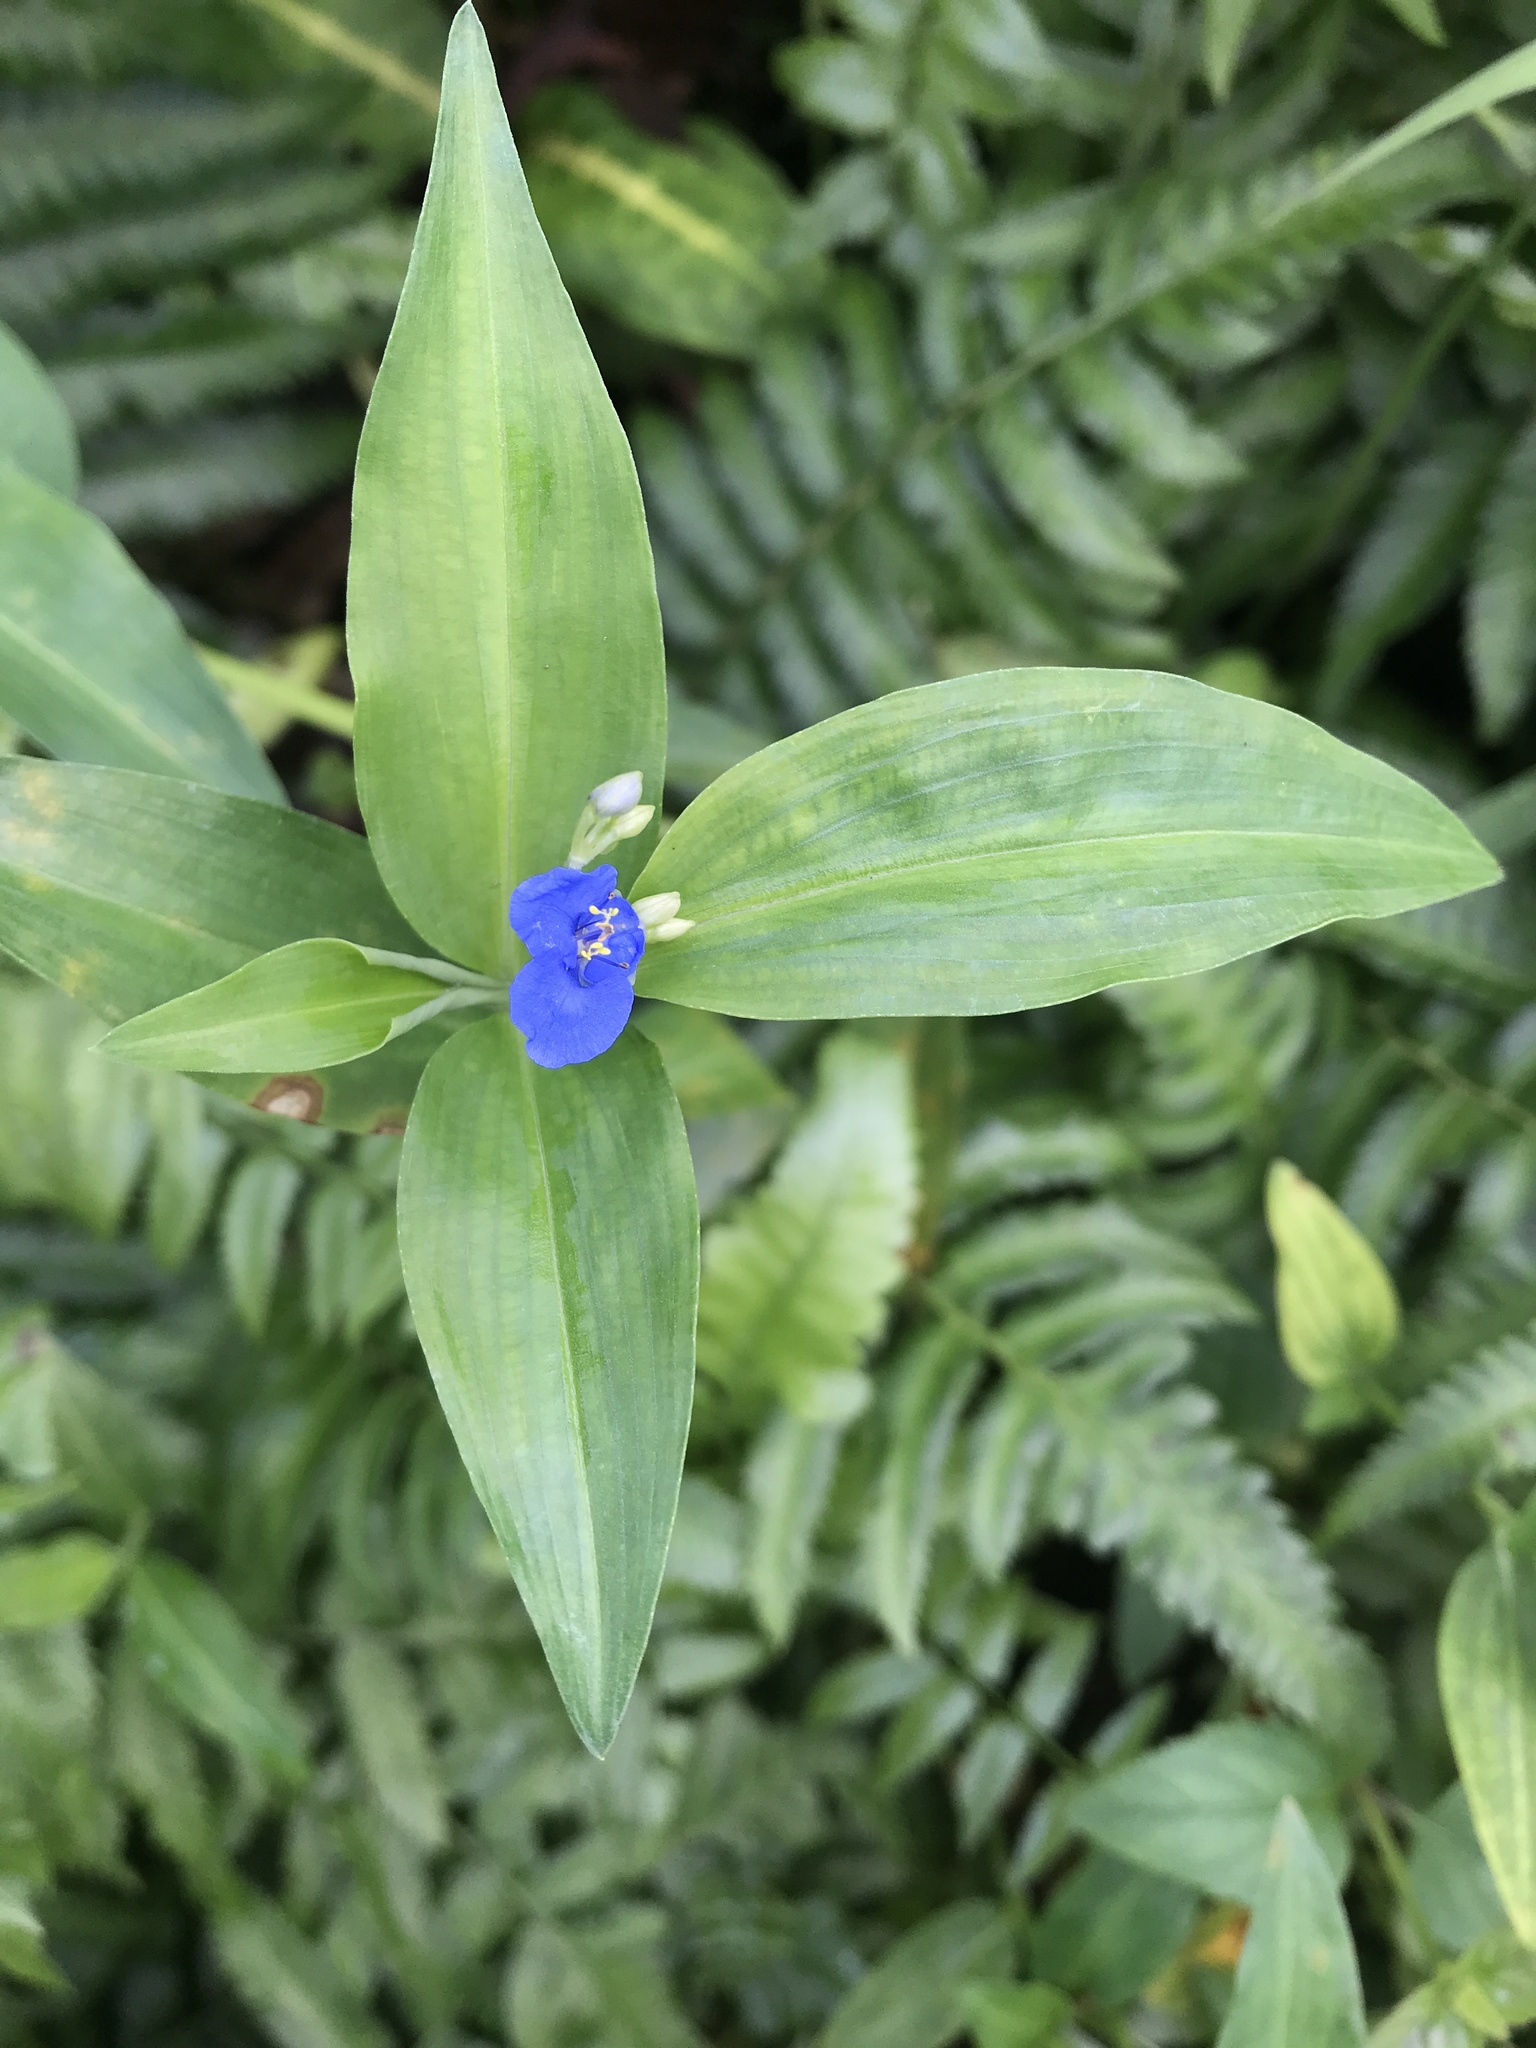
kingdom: Plantae
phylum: Tracheophyta
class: Liliopsida
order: Commelinales
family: Commelinaceae
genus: Commelina
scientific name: Commelina diffusa
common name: Climbing dayflower
